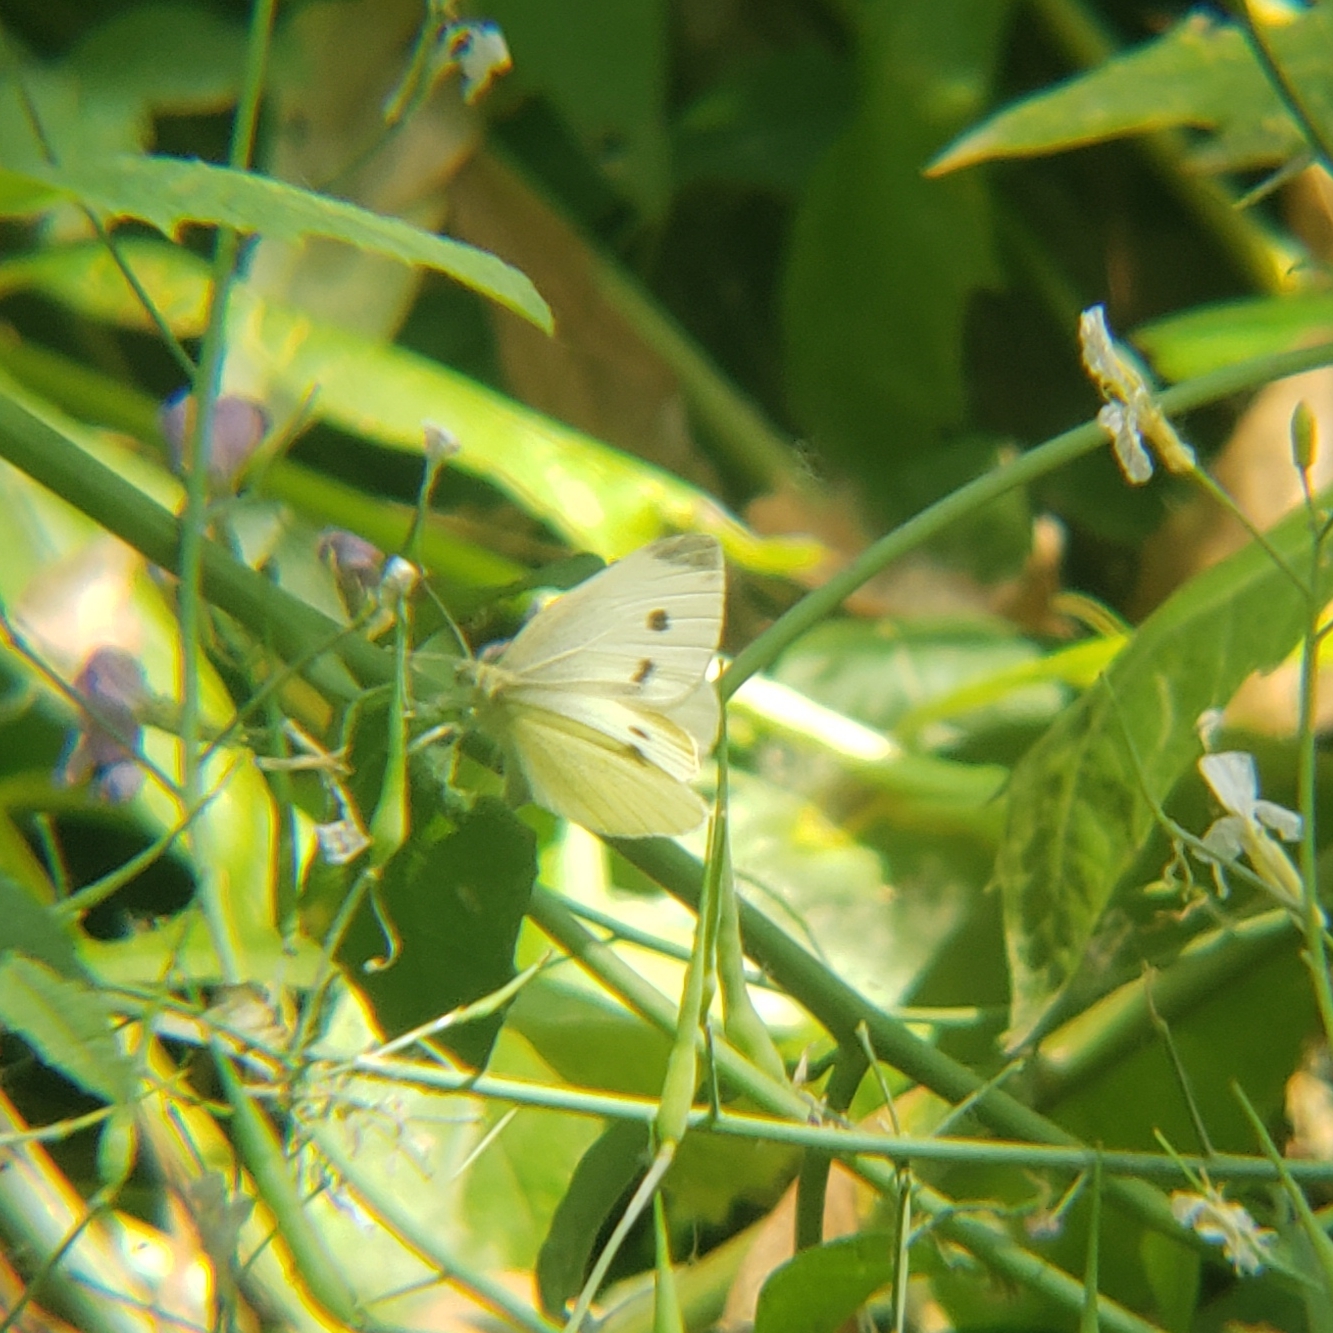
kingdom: Animalia
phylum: Arthropoda
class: Insecta
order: Lepidoptera
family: Pieridae
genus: Pieris
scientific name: Pieris rapae
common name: Small white
